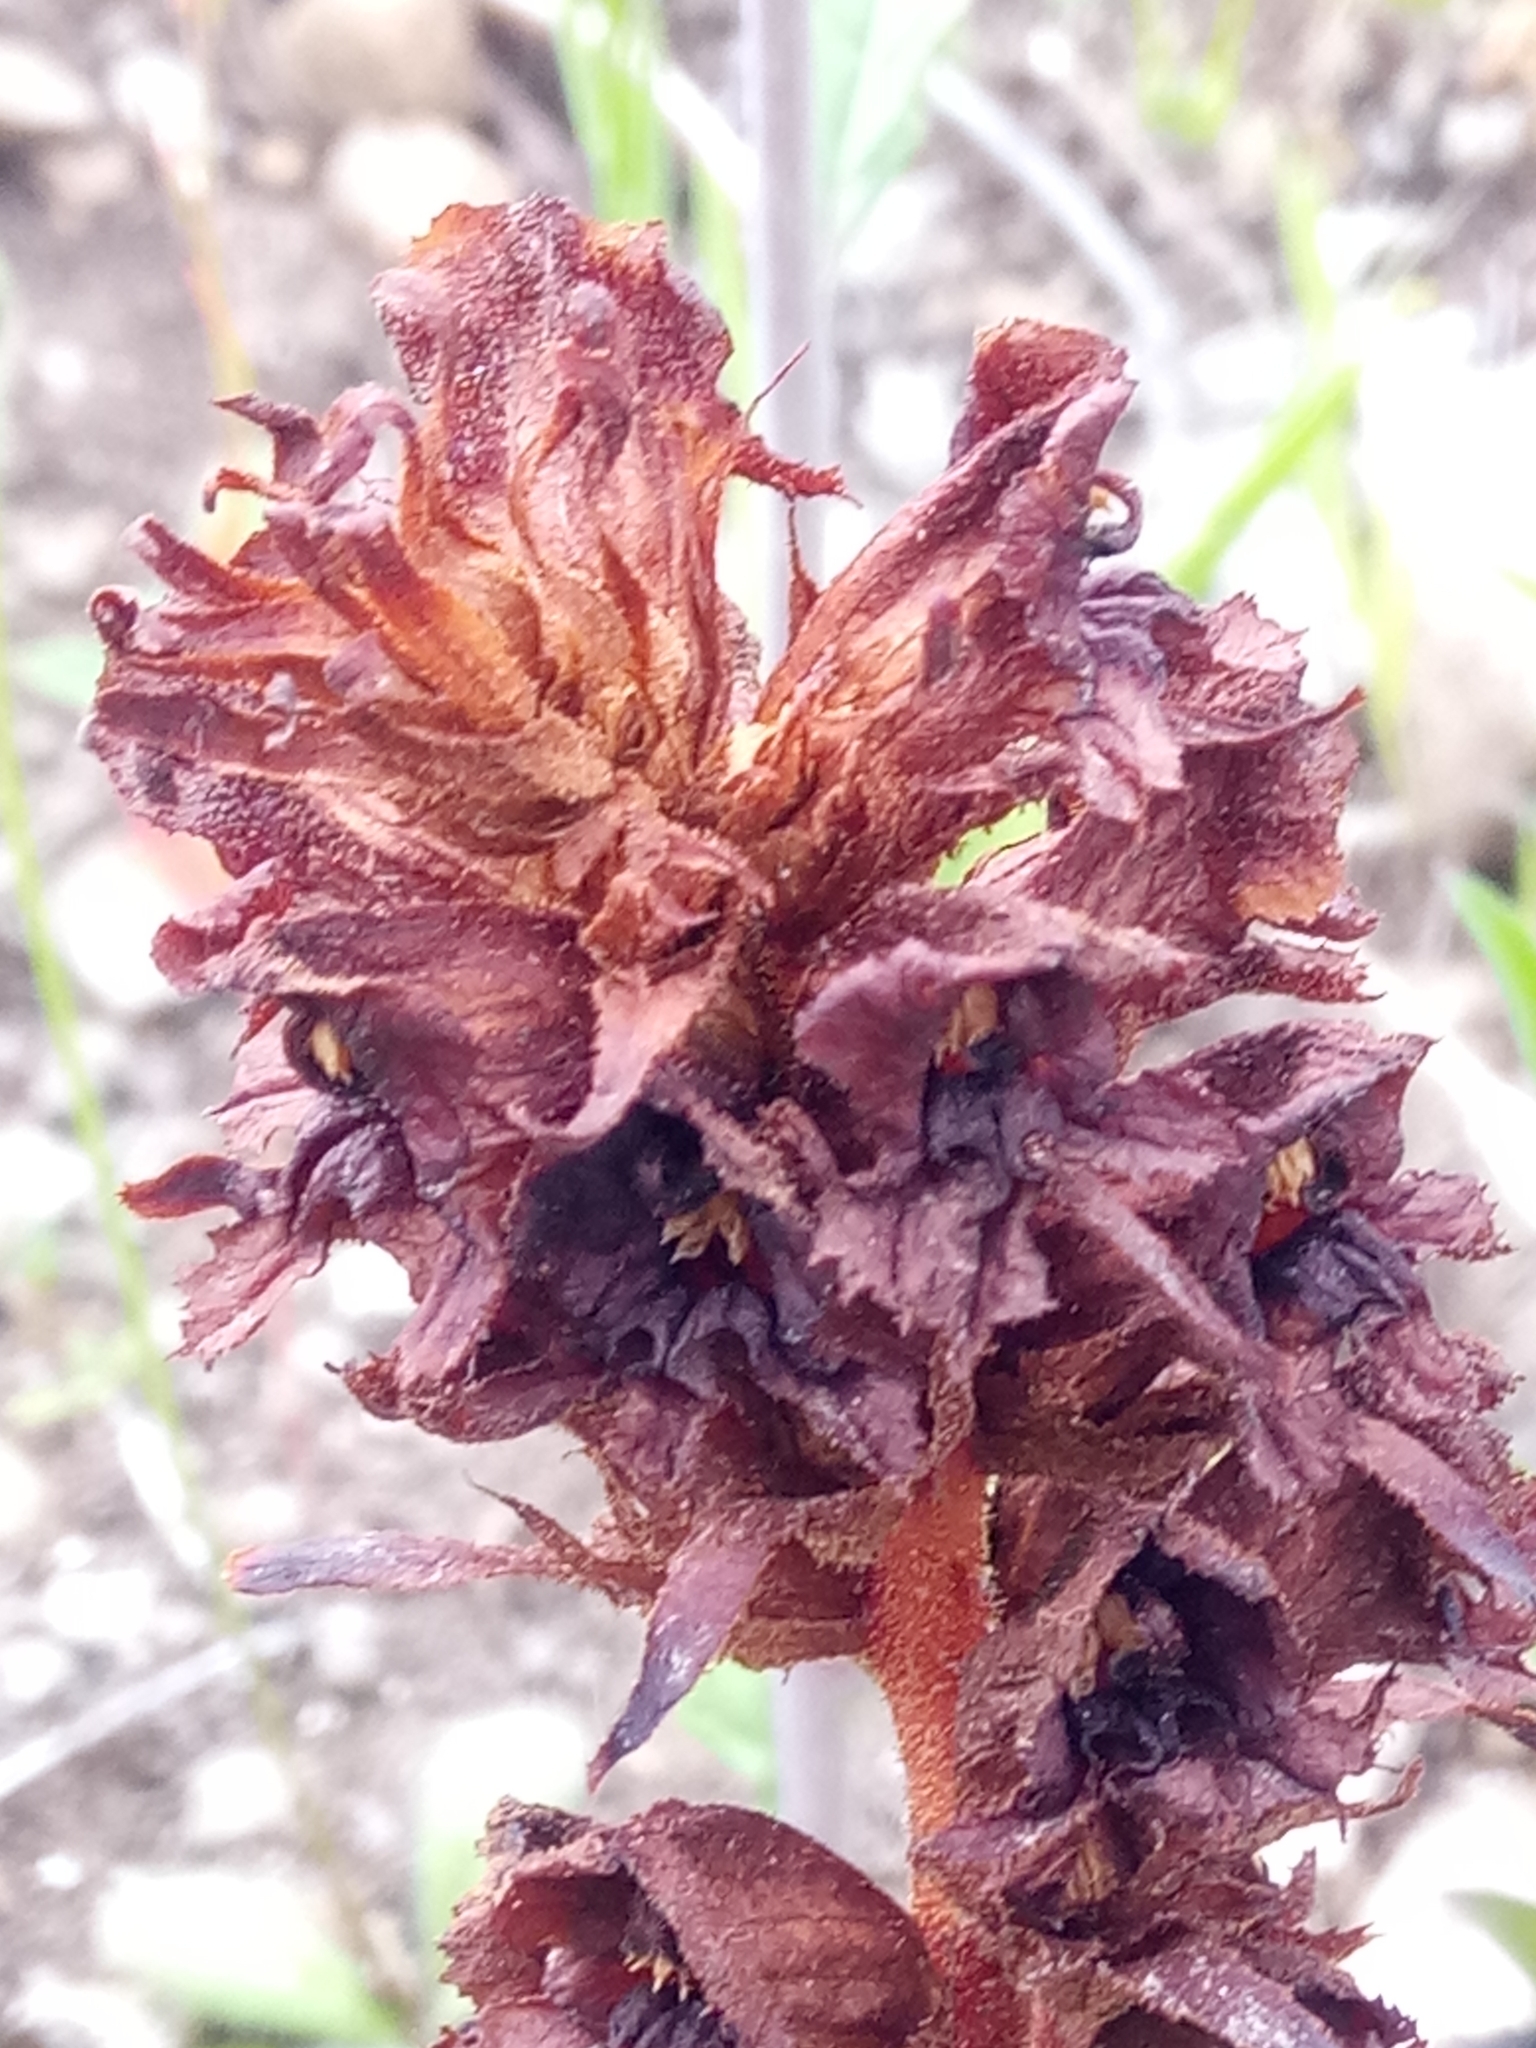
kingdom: Plantae
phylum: Tracheophyta
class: Magnoliopsida
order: Lamiales
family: Orobanchaceae
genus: Orobanche
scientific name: Orobanche variegata
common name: Variegated broomrape
